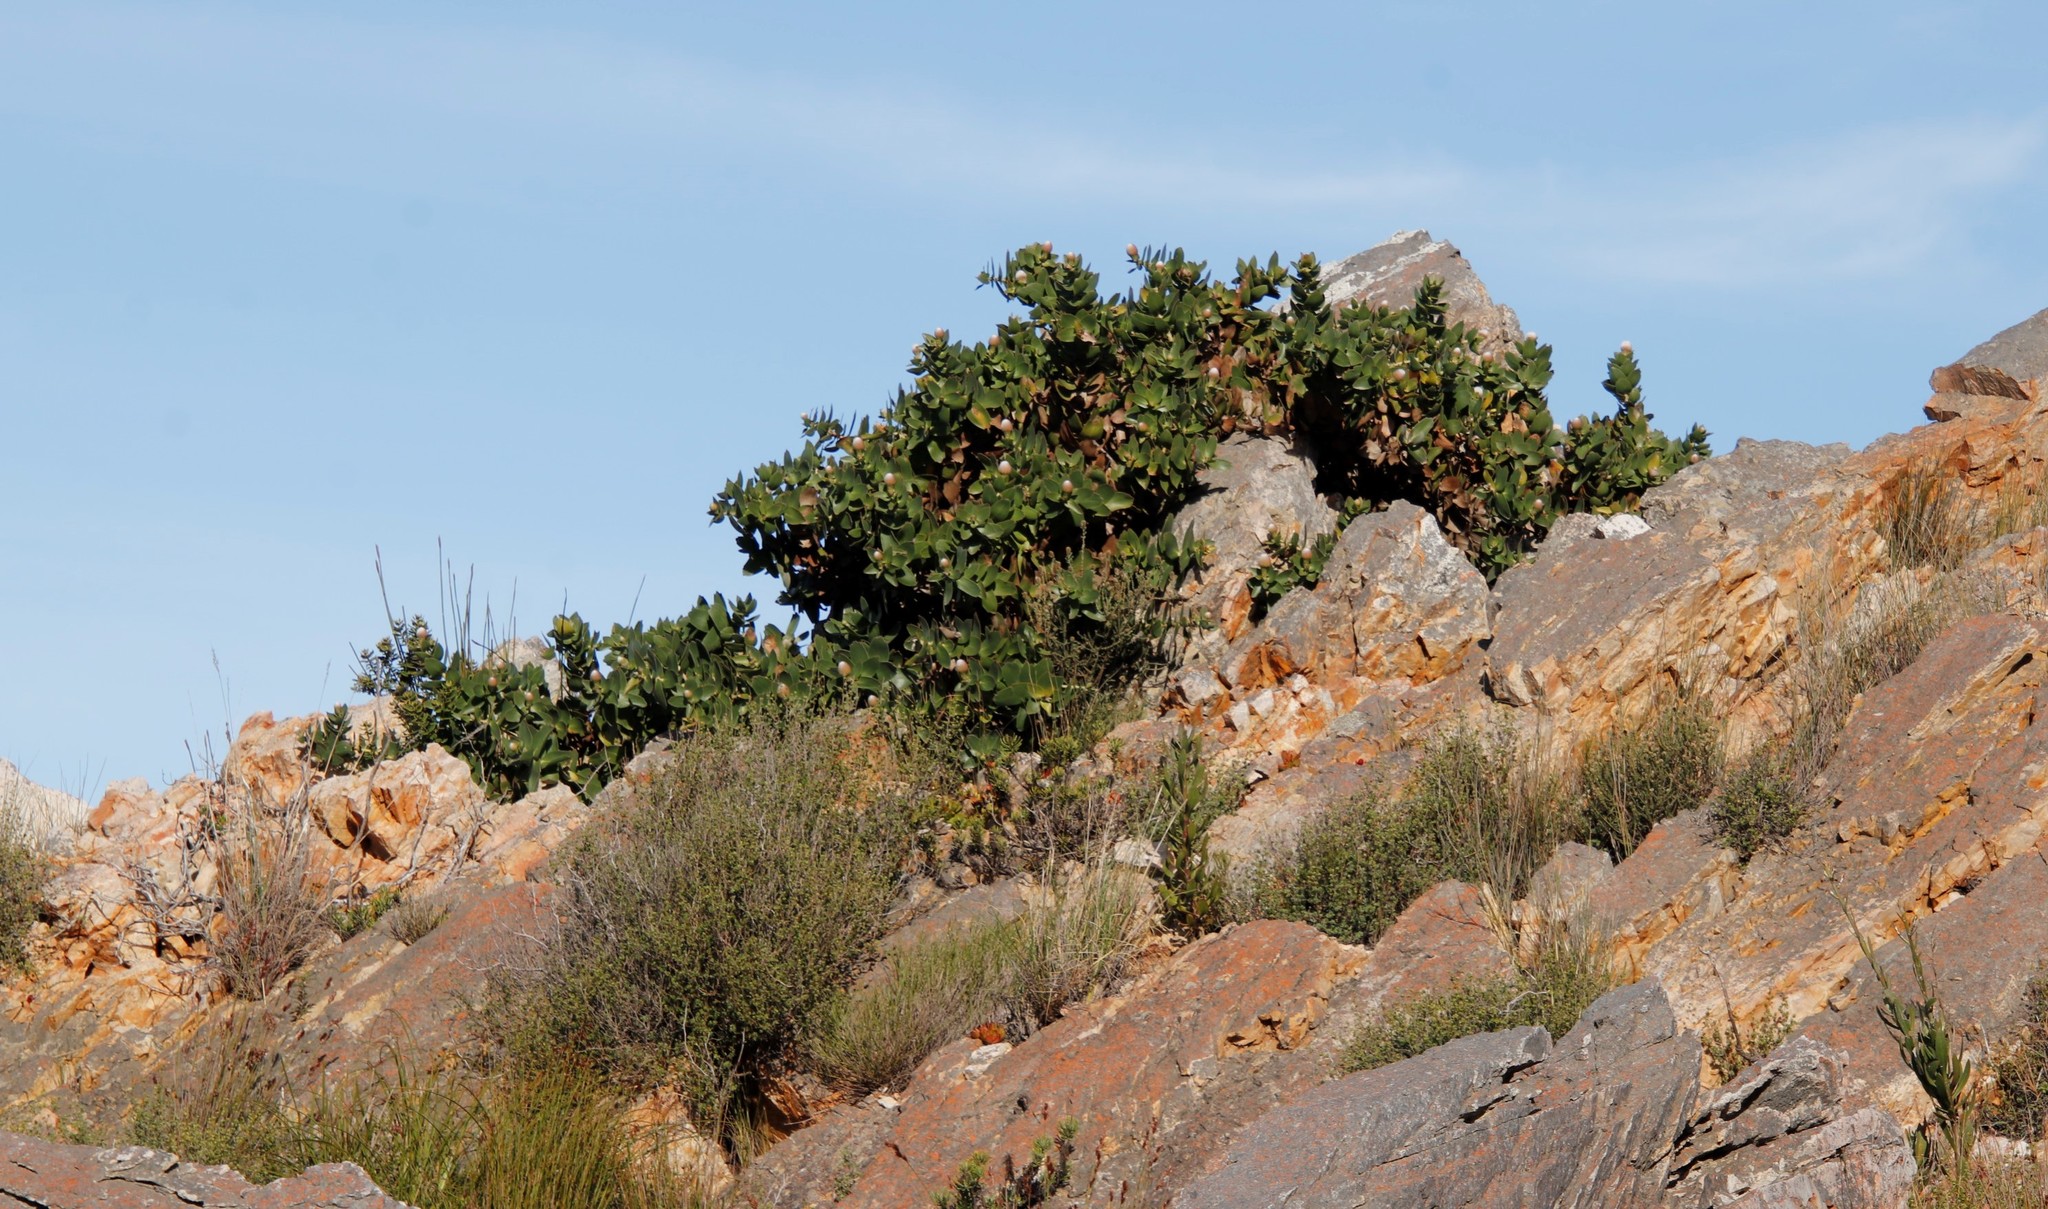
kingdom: Plantae
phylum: Tracheophyta
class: Magnoliopsida
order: Proteales
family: Proteaceae
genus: Leucospermum
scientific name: Leucospermum cordifolium
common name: Red pincushion-protea
